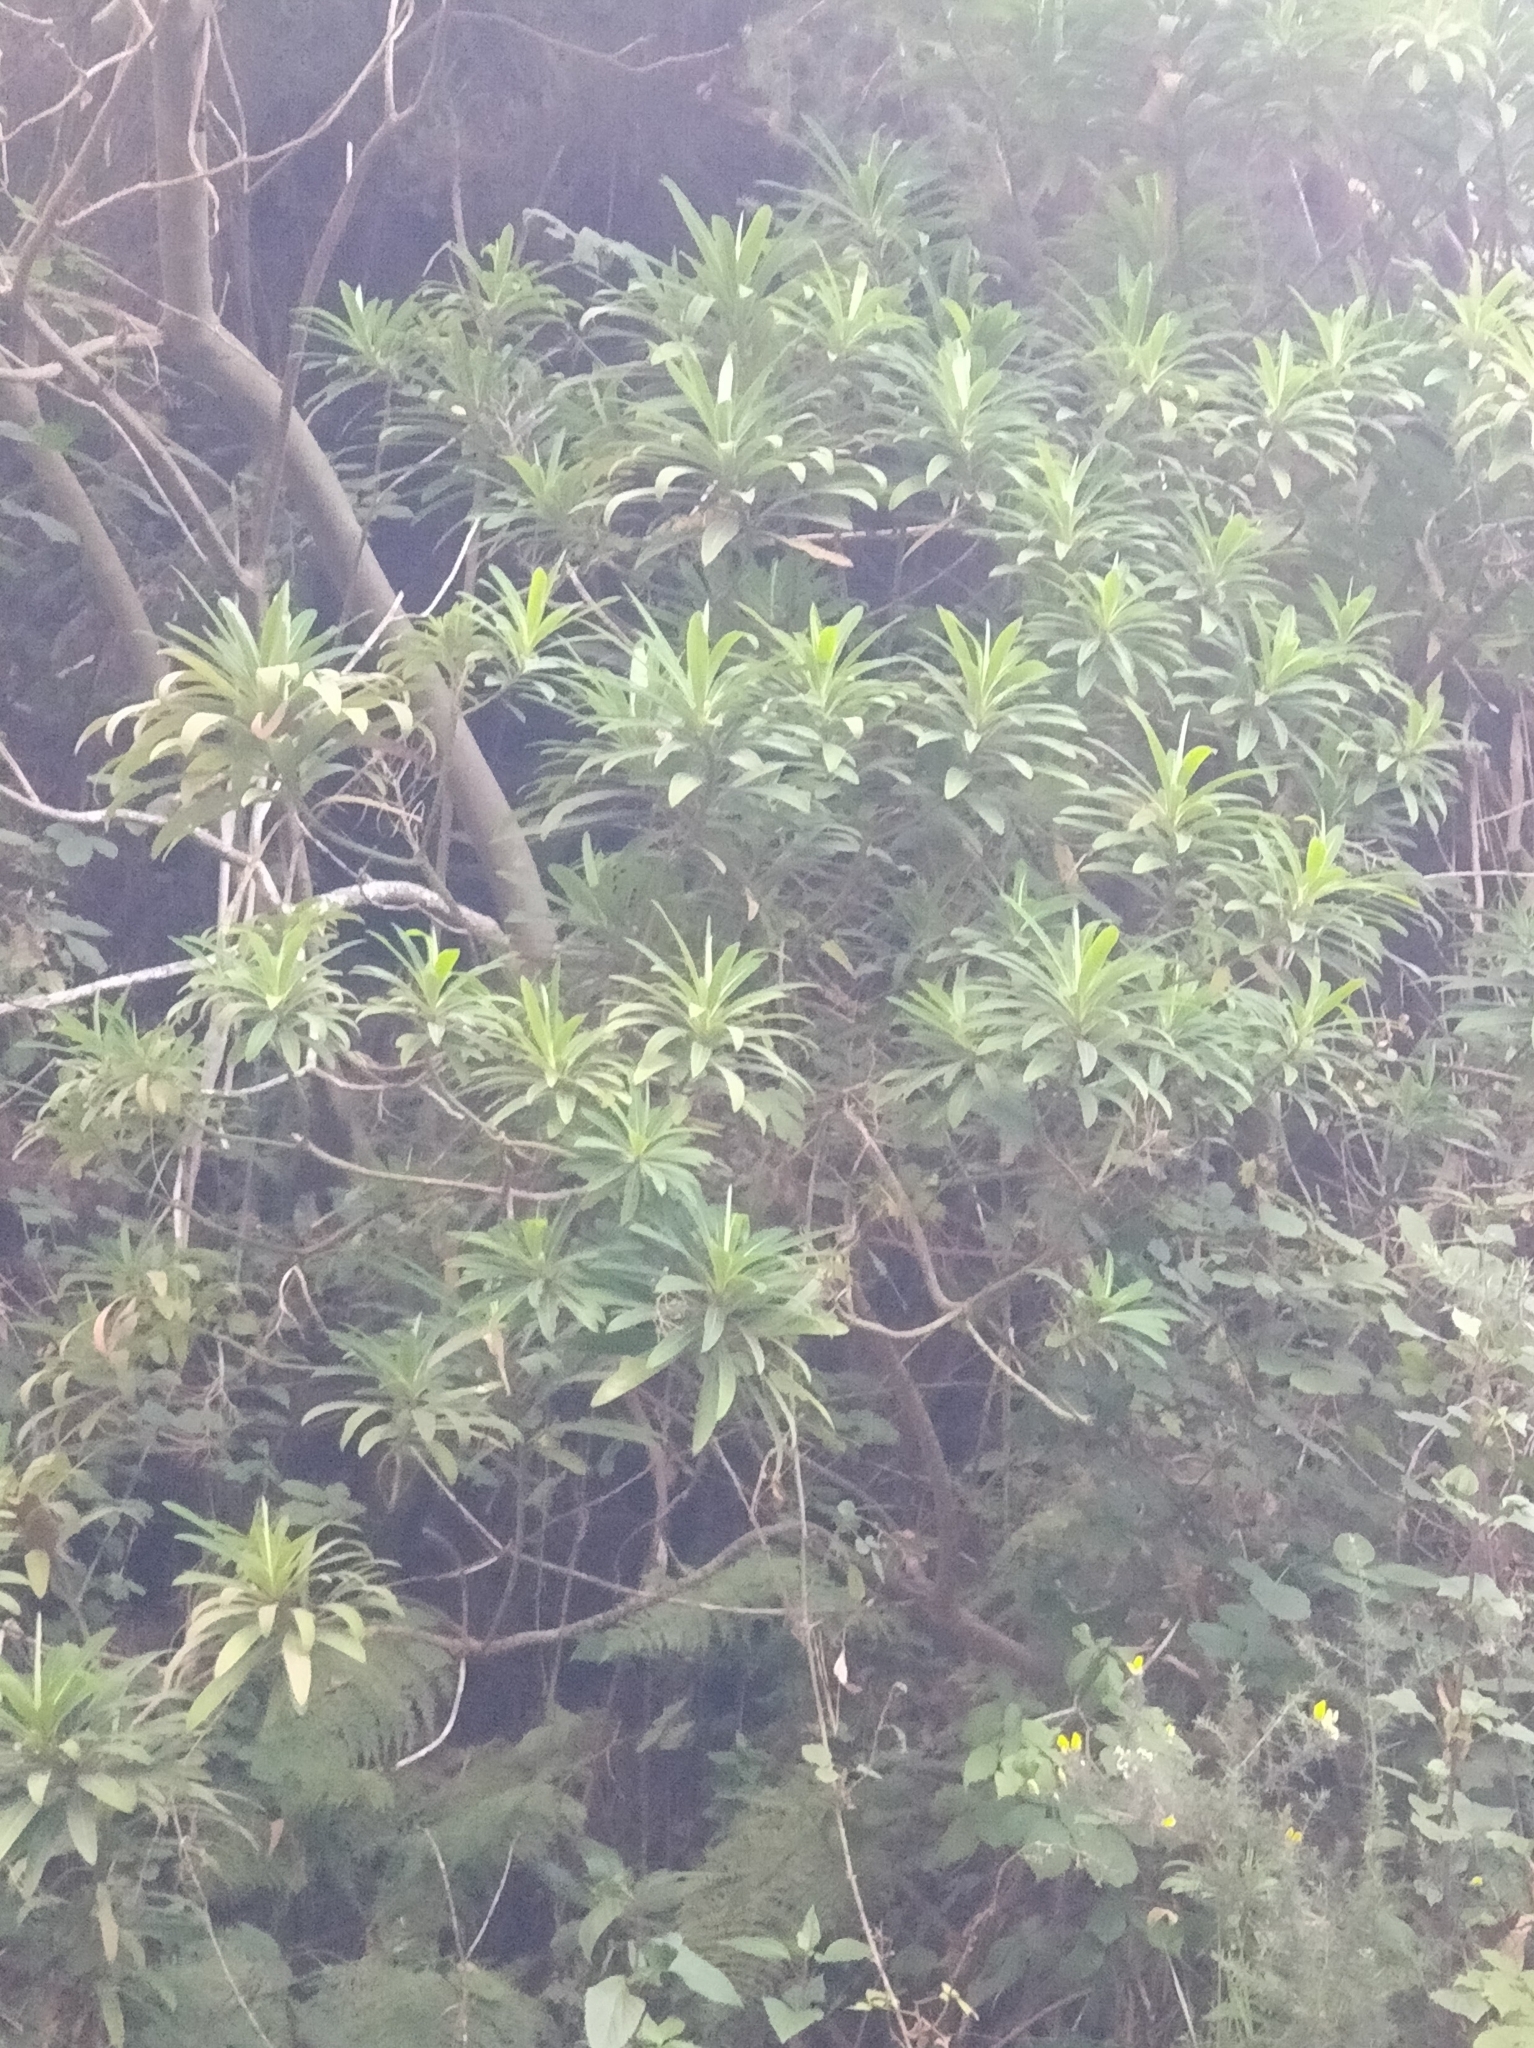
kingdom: Plantae
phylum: Tracheophyta
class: Magnoliopsida
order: Malpighiales
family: Euphorbiaceae
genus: Euphorbia
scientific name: Euphorbia mellifera
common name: Canary spurge
